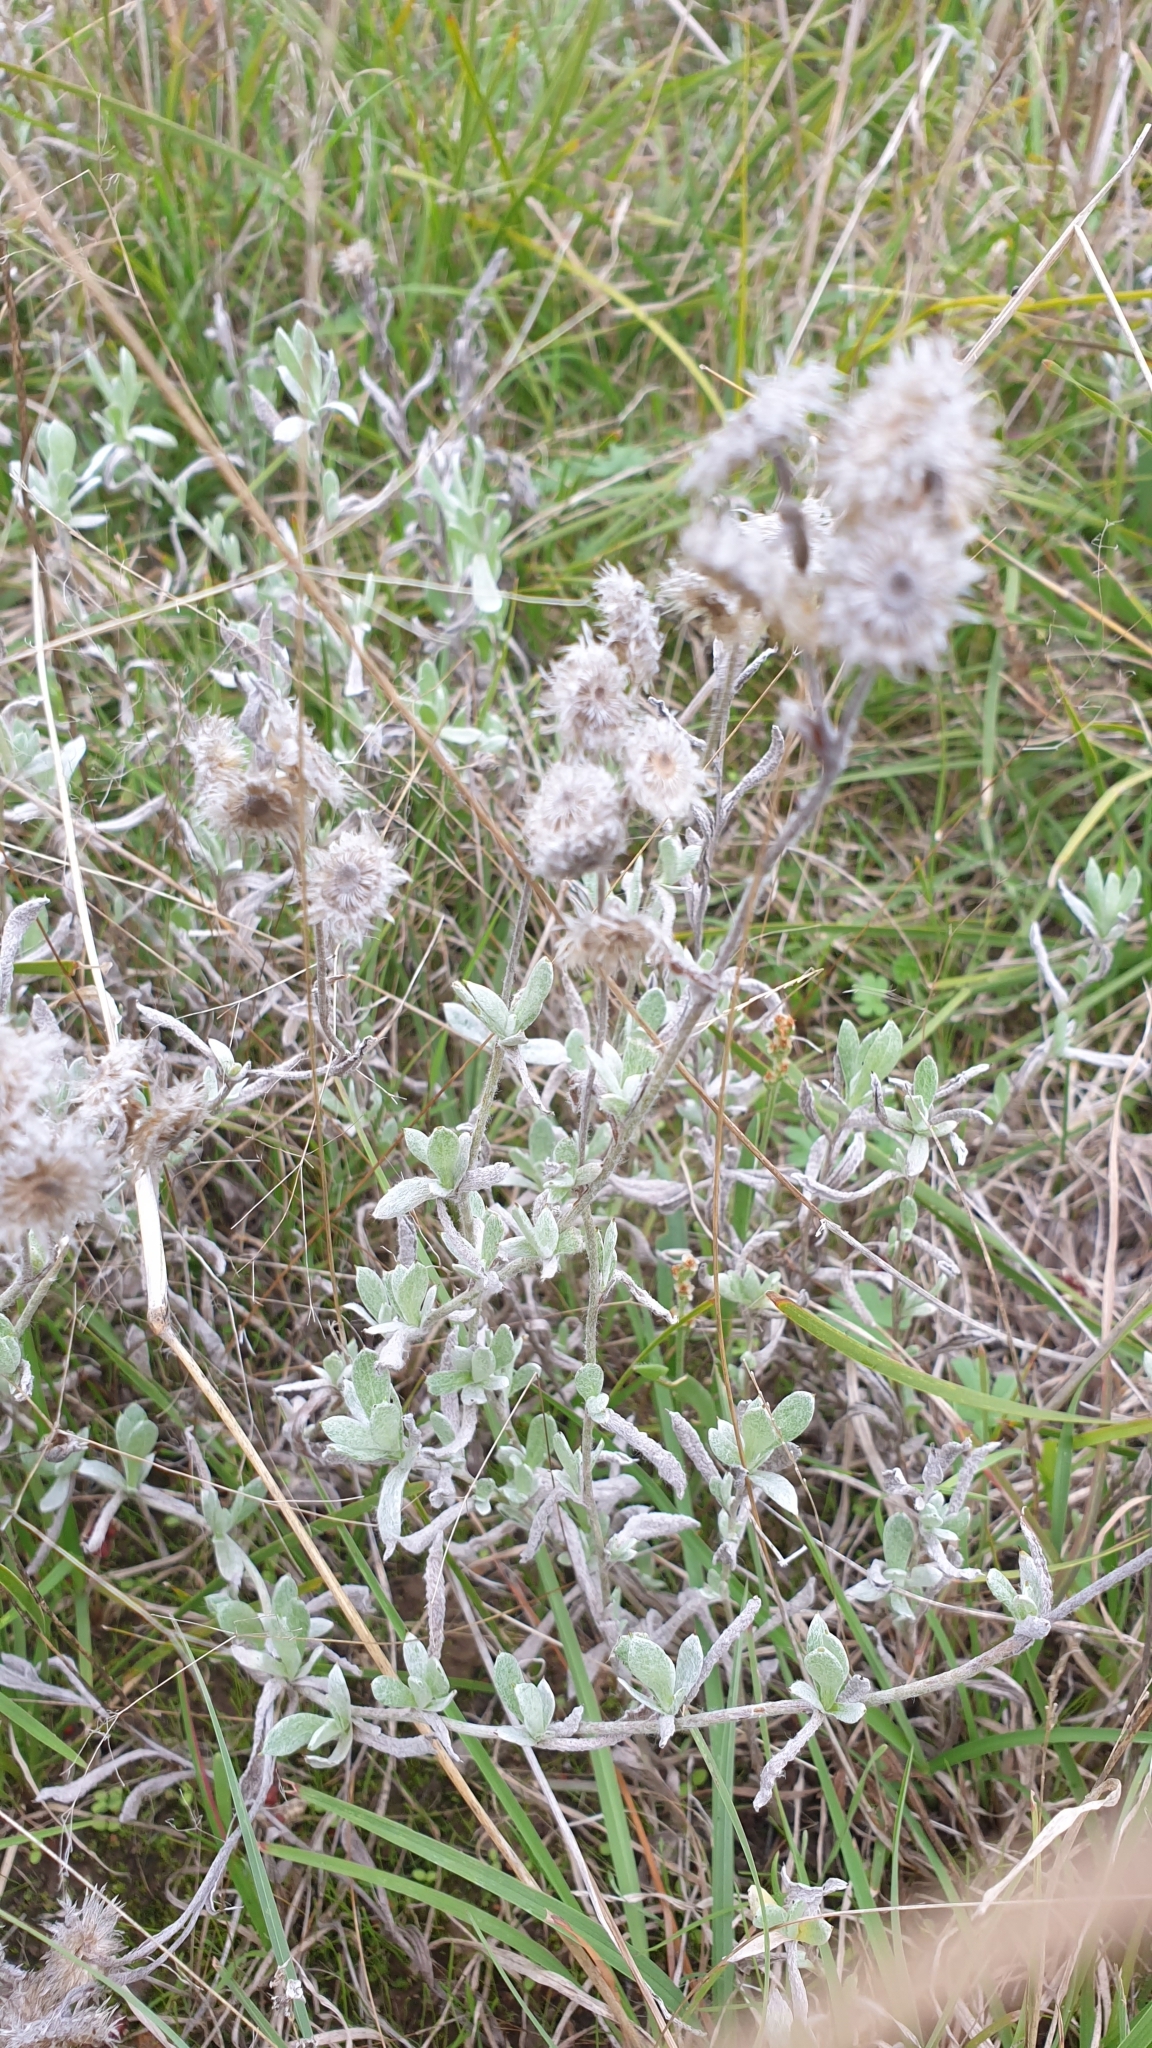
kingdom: Plantae
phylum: Tracheophyta
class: Magnoliopsida
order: Asterales
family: Asteraceae
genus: Chrysocephalum
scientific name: Chrysocephalum apiculatum
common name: Common everlasting
